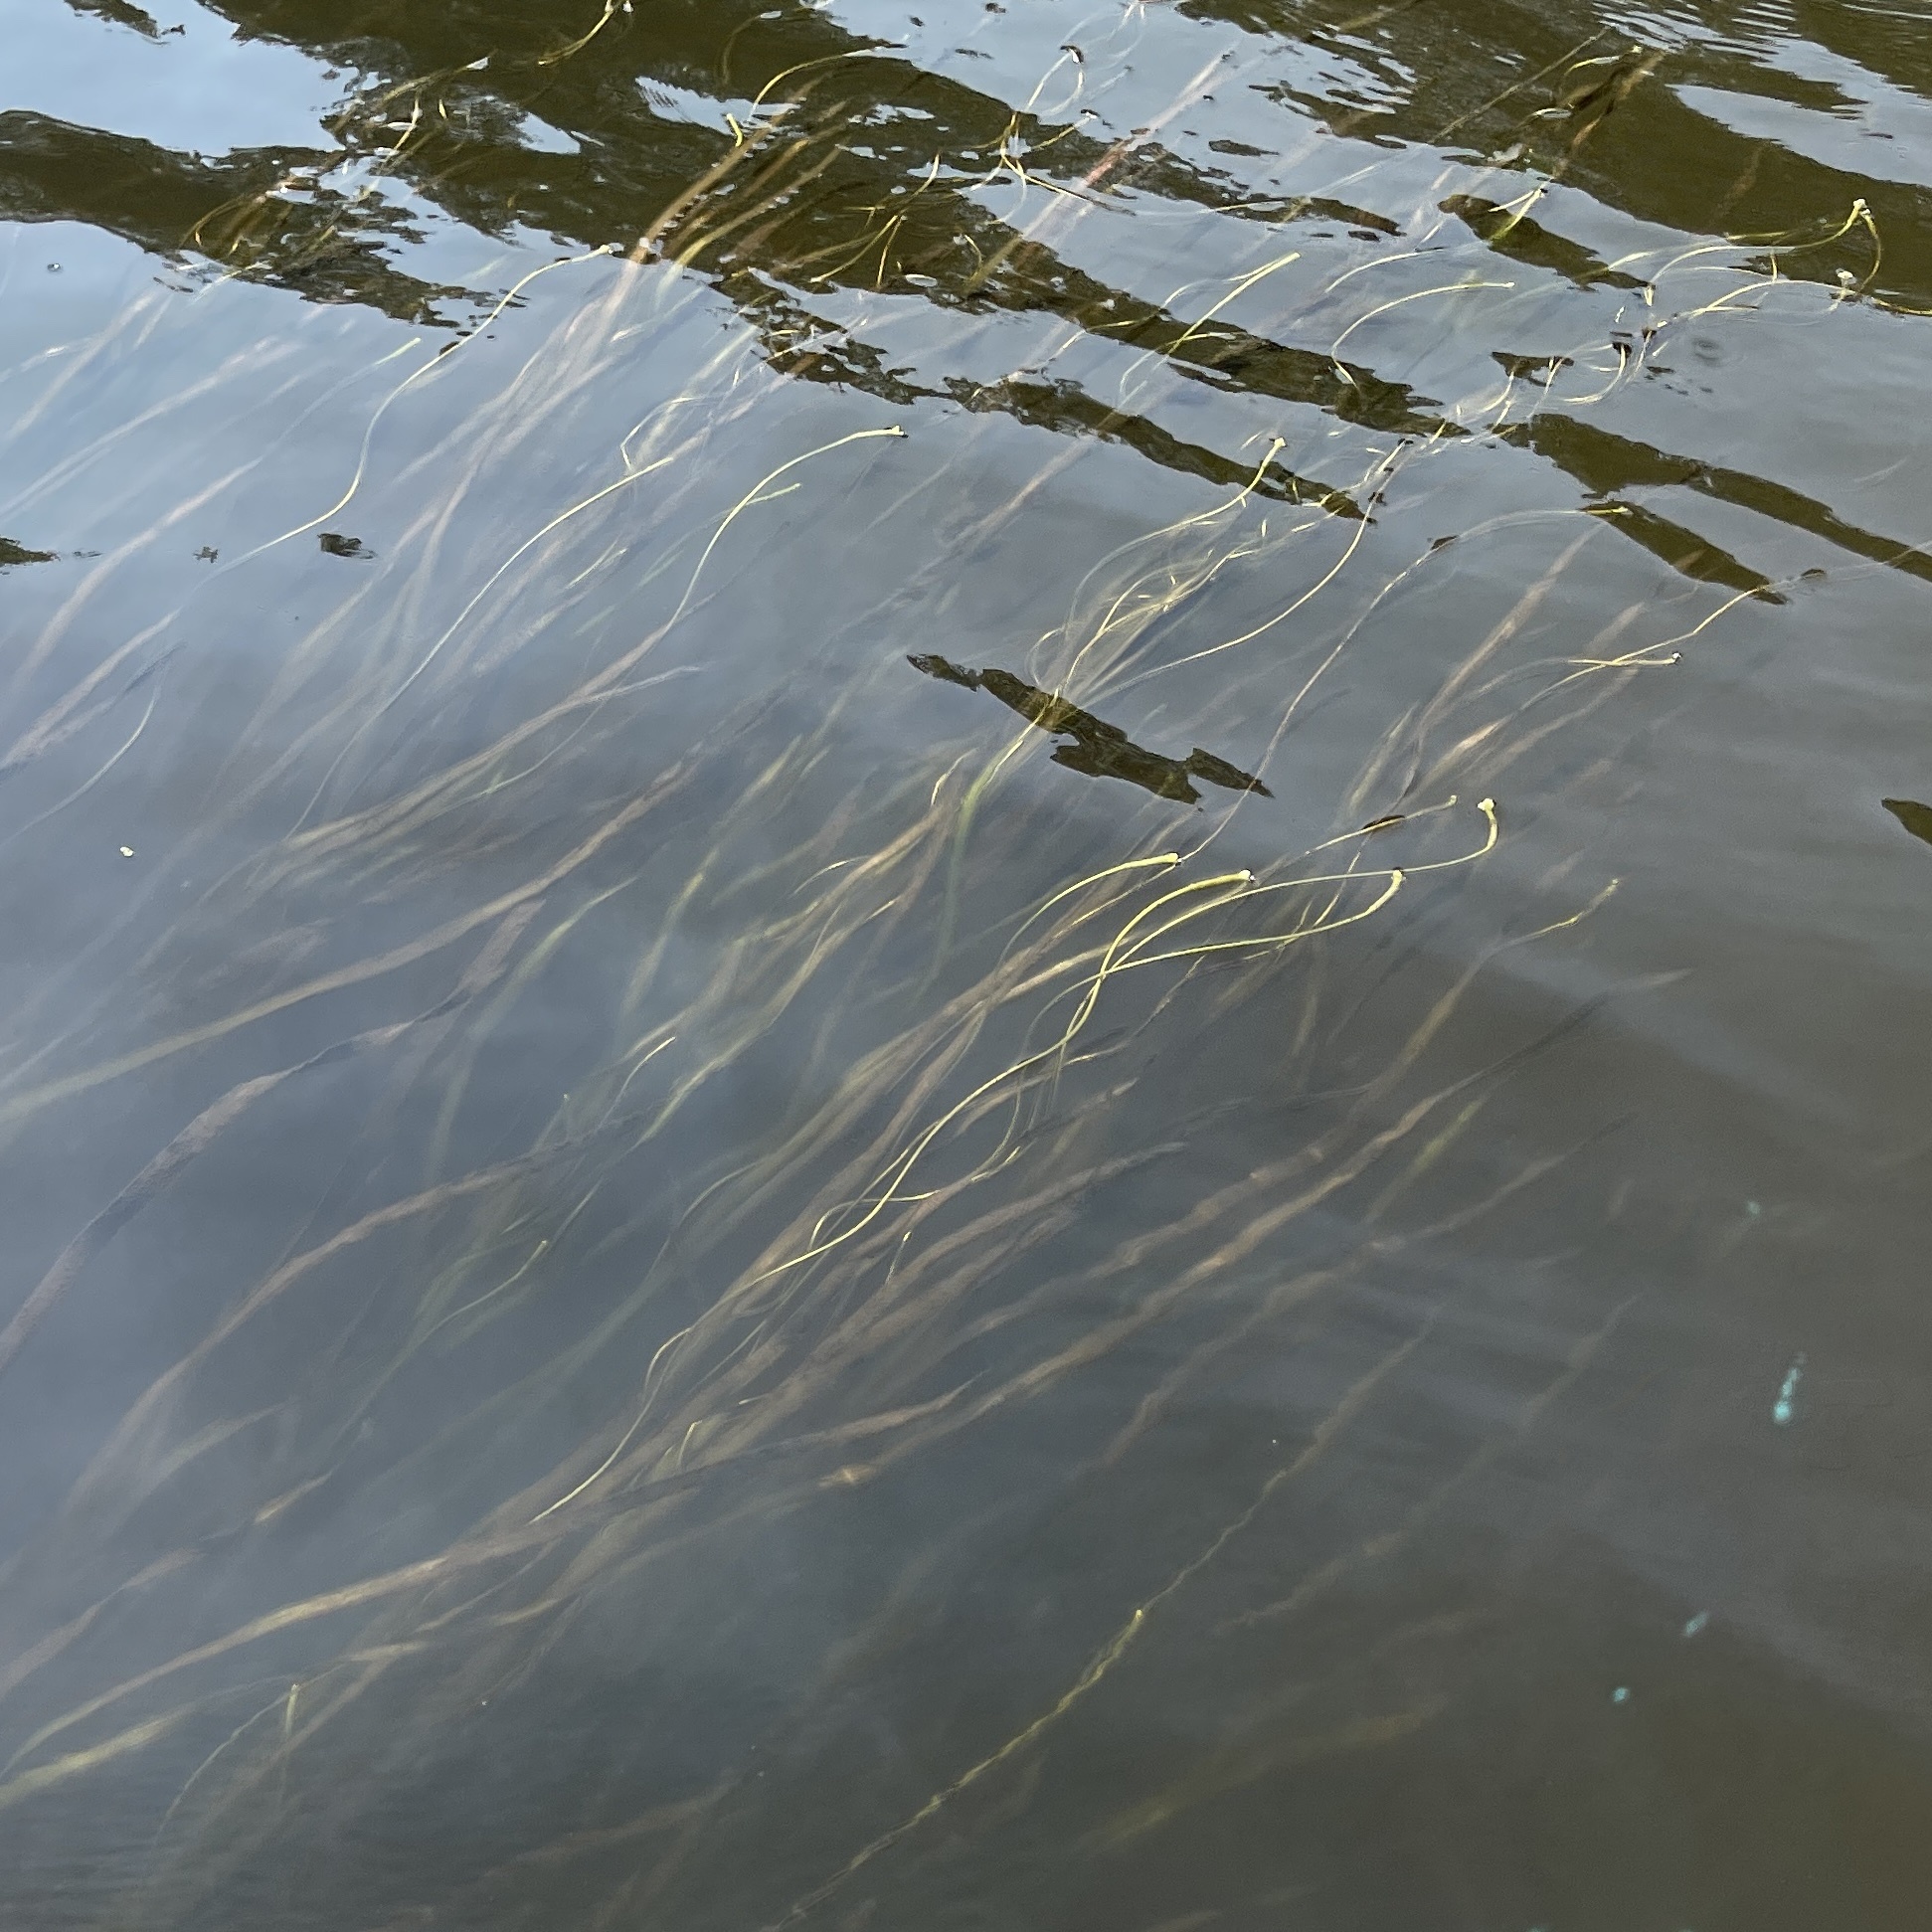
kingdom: Plantae
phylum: Tracheophyta
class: Liliopsida
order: Alismatales
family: Hydrocharitaceae
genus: Vallisneria
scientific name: Vallisneria americana
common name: American eelgrass
